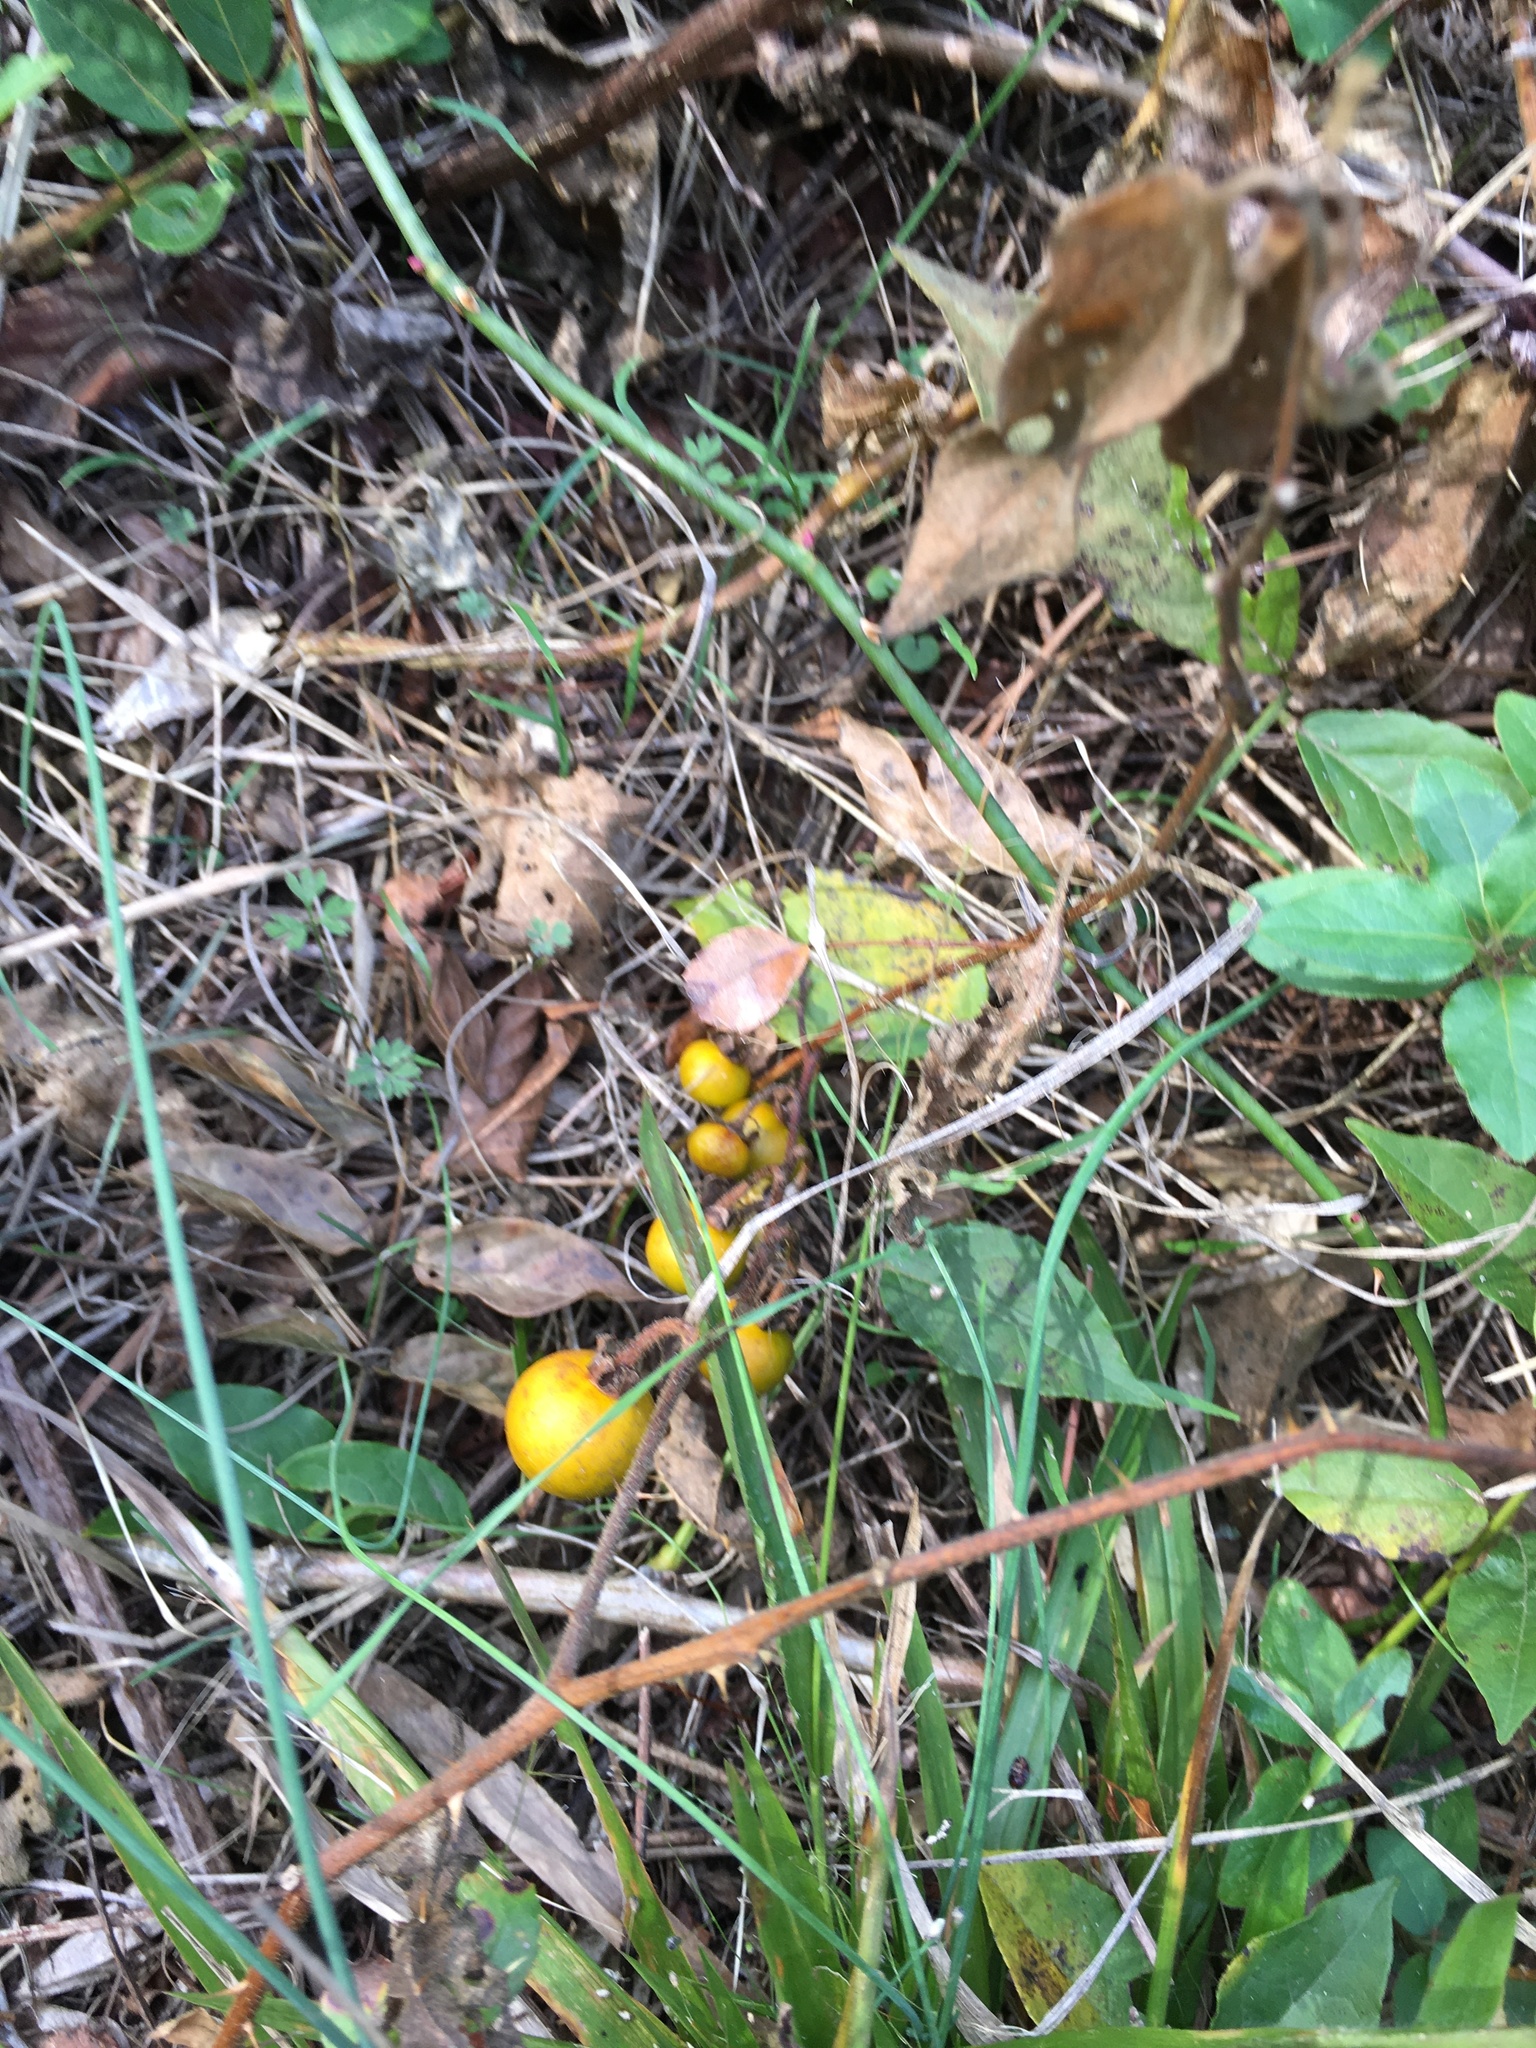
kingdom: Plantae
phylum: Tracheophyta
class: Magnoliopsida
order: Solanales
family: Solanaceae
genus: Solanum
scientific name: Solanum carolinense
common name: Horse-nettle
